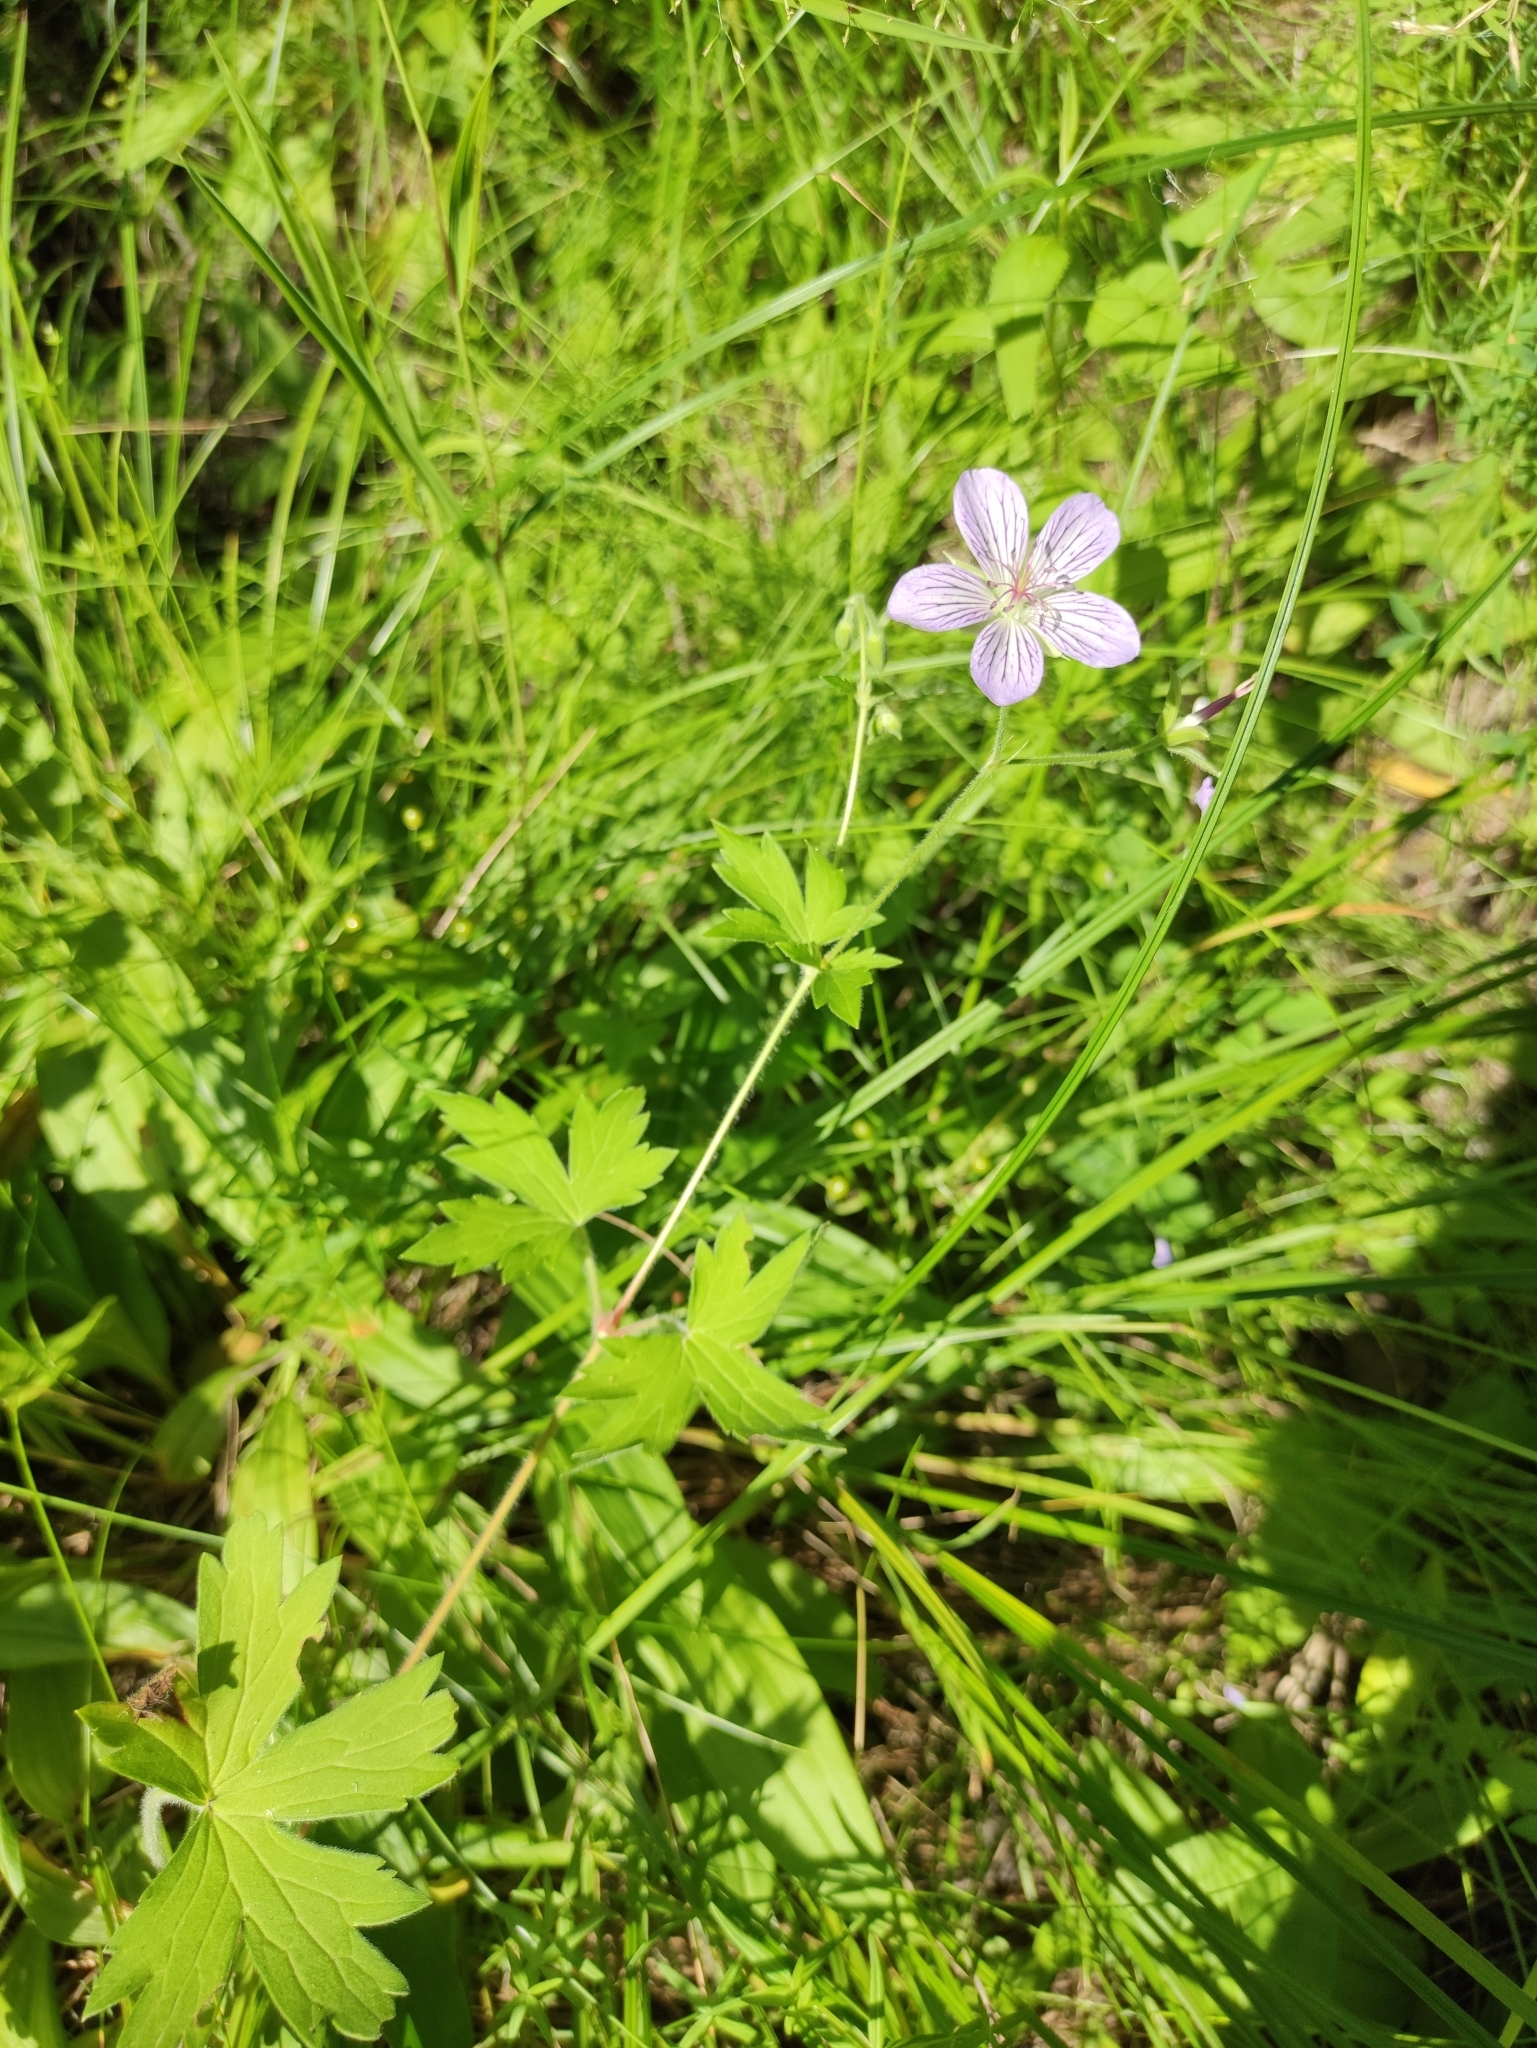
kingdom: Plantae
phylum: Tracheophyta
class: Magnoliopsida
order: Geraniales
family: Geraniaceae
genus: Geranium
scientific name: Geranium wlassovianum
